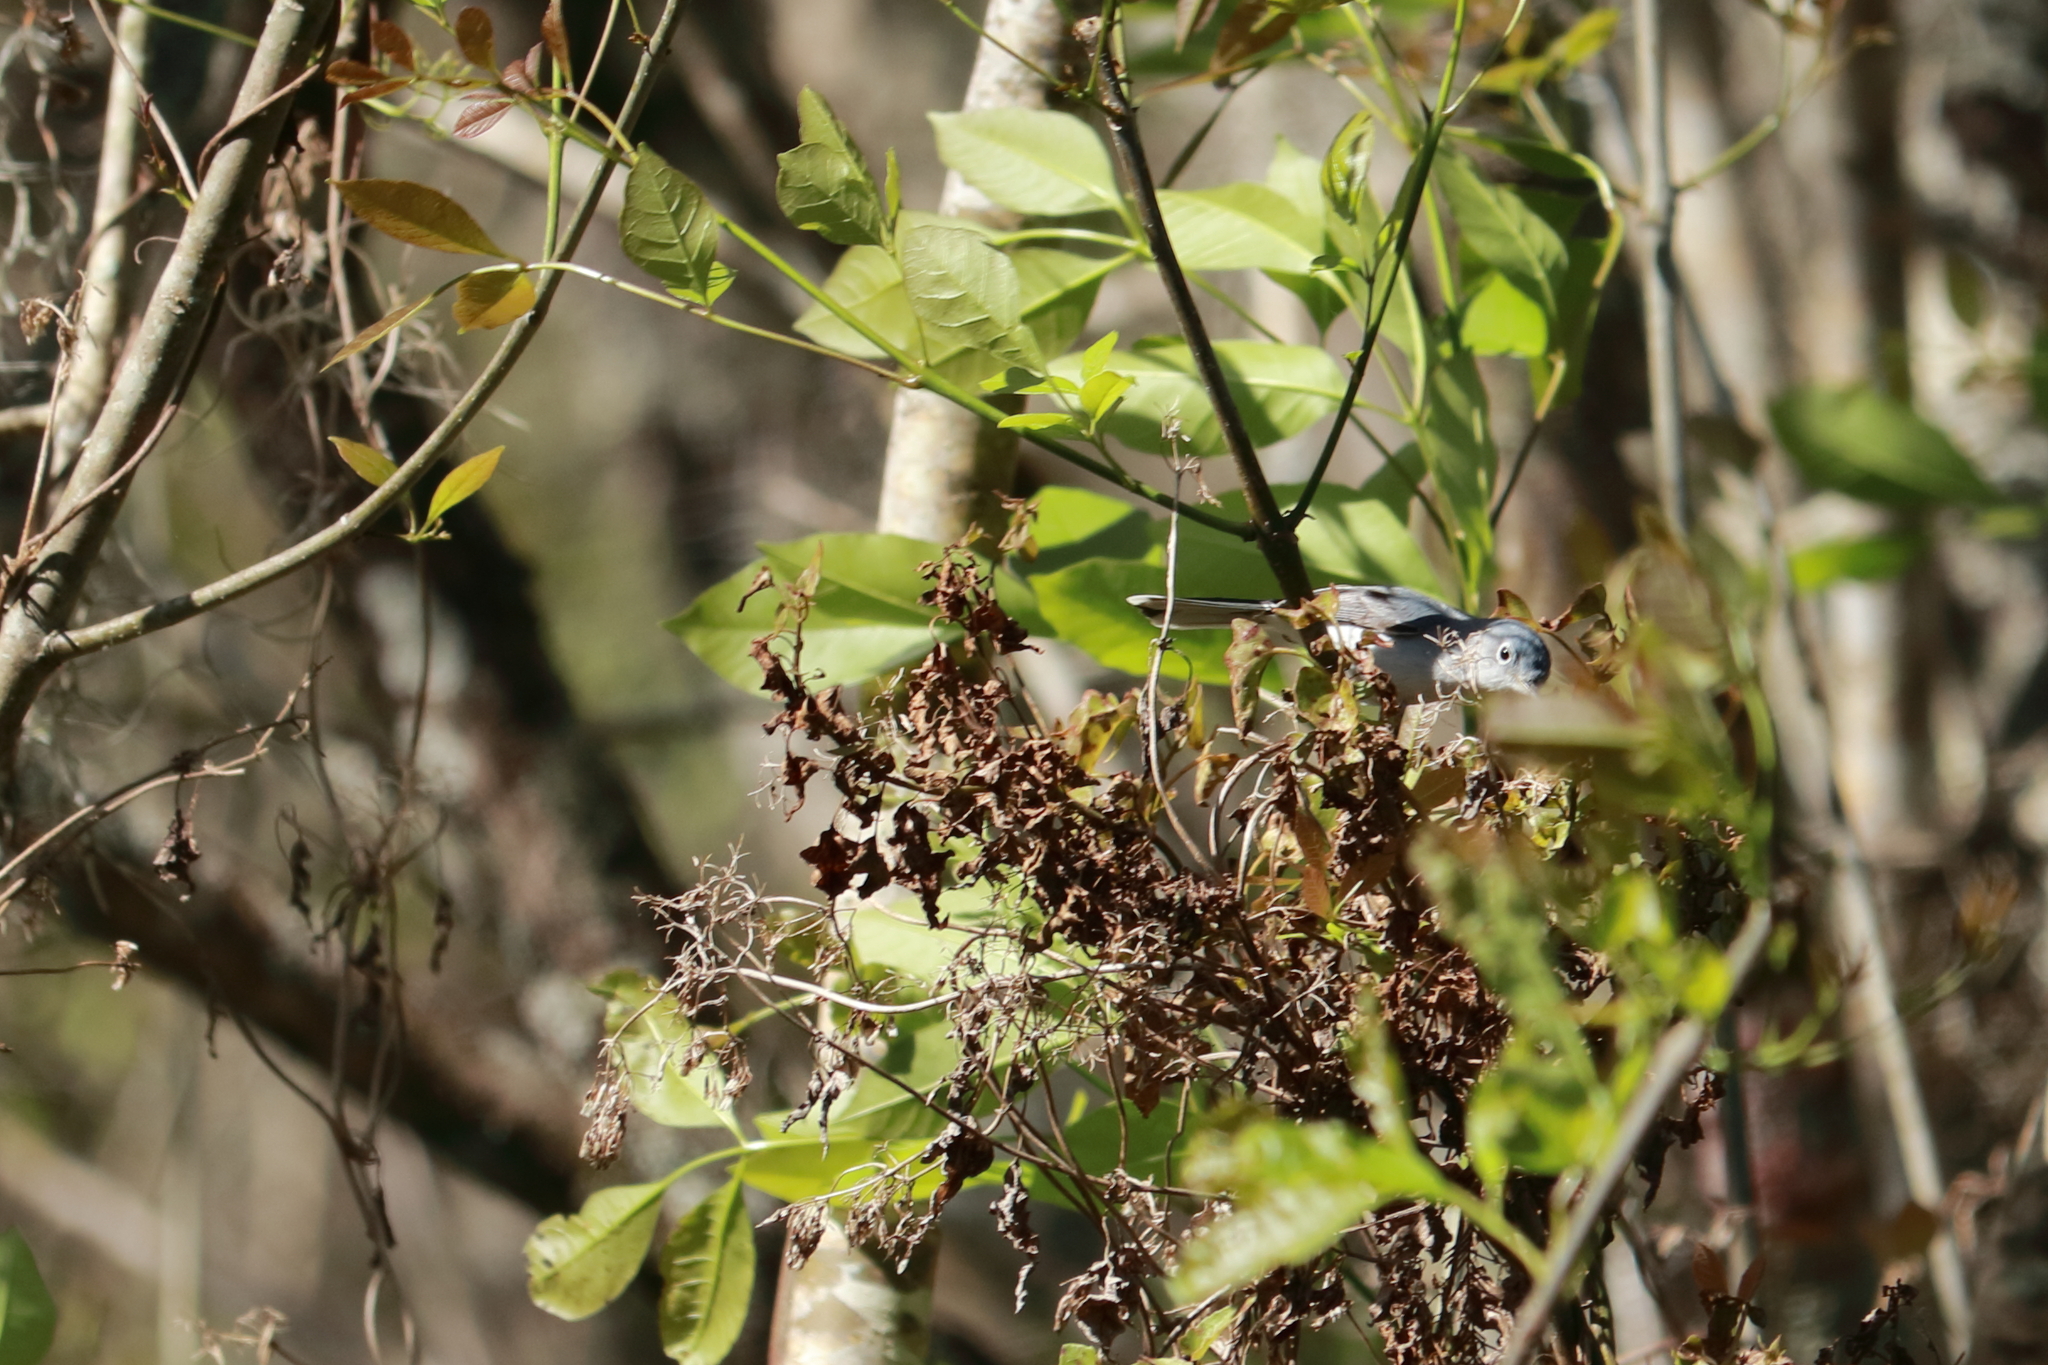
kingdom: Animalia
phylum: Chordata
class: Aves
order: Passeriformes
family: Polioptilidae
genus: Polioptila
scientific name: Polioptila caerulea
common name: Blue-gray gnatcatcher
